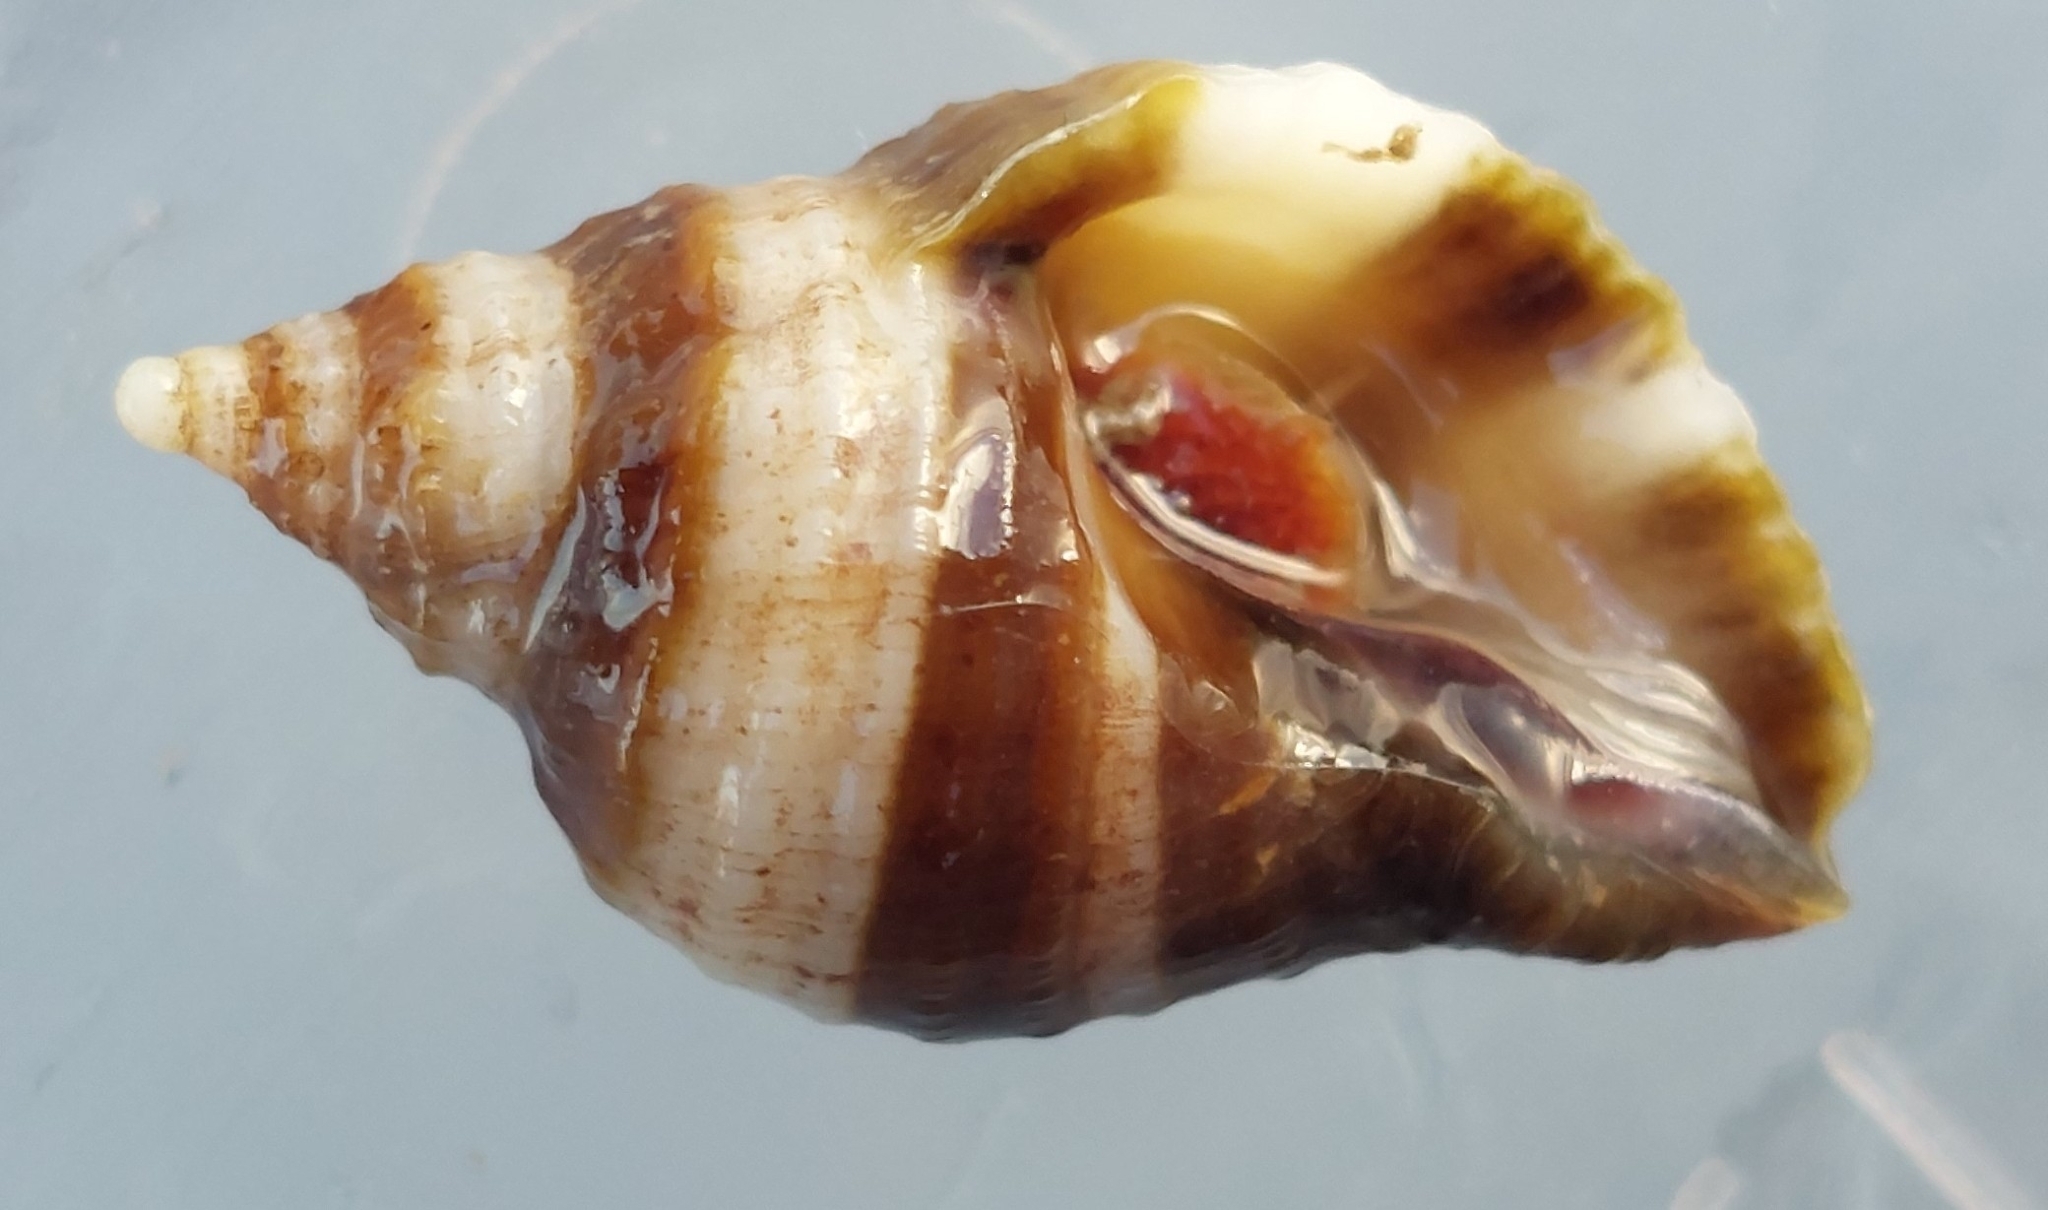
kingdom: Animalia
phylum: Mollusca
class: Gastropoda
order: Neogastropoda
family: Muricidae
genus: Nucella
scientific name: Nucella lapillus
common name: Dog whelk
